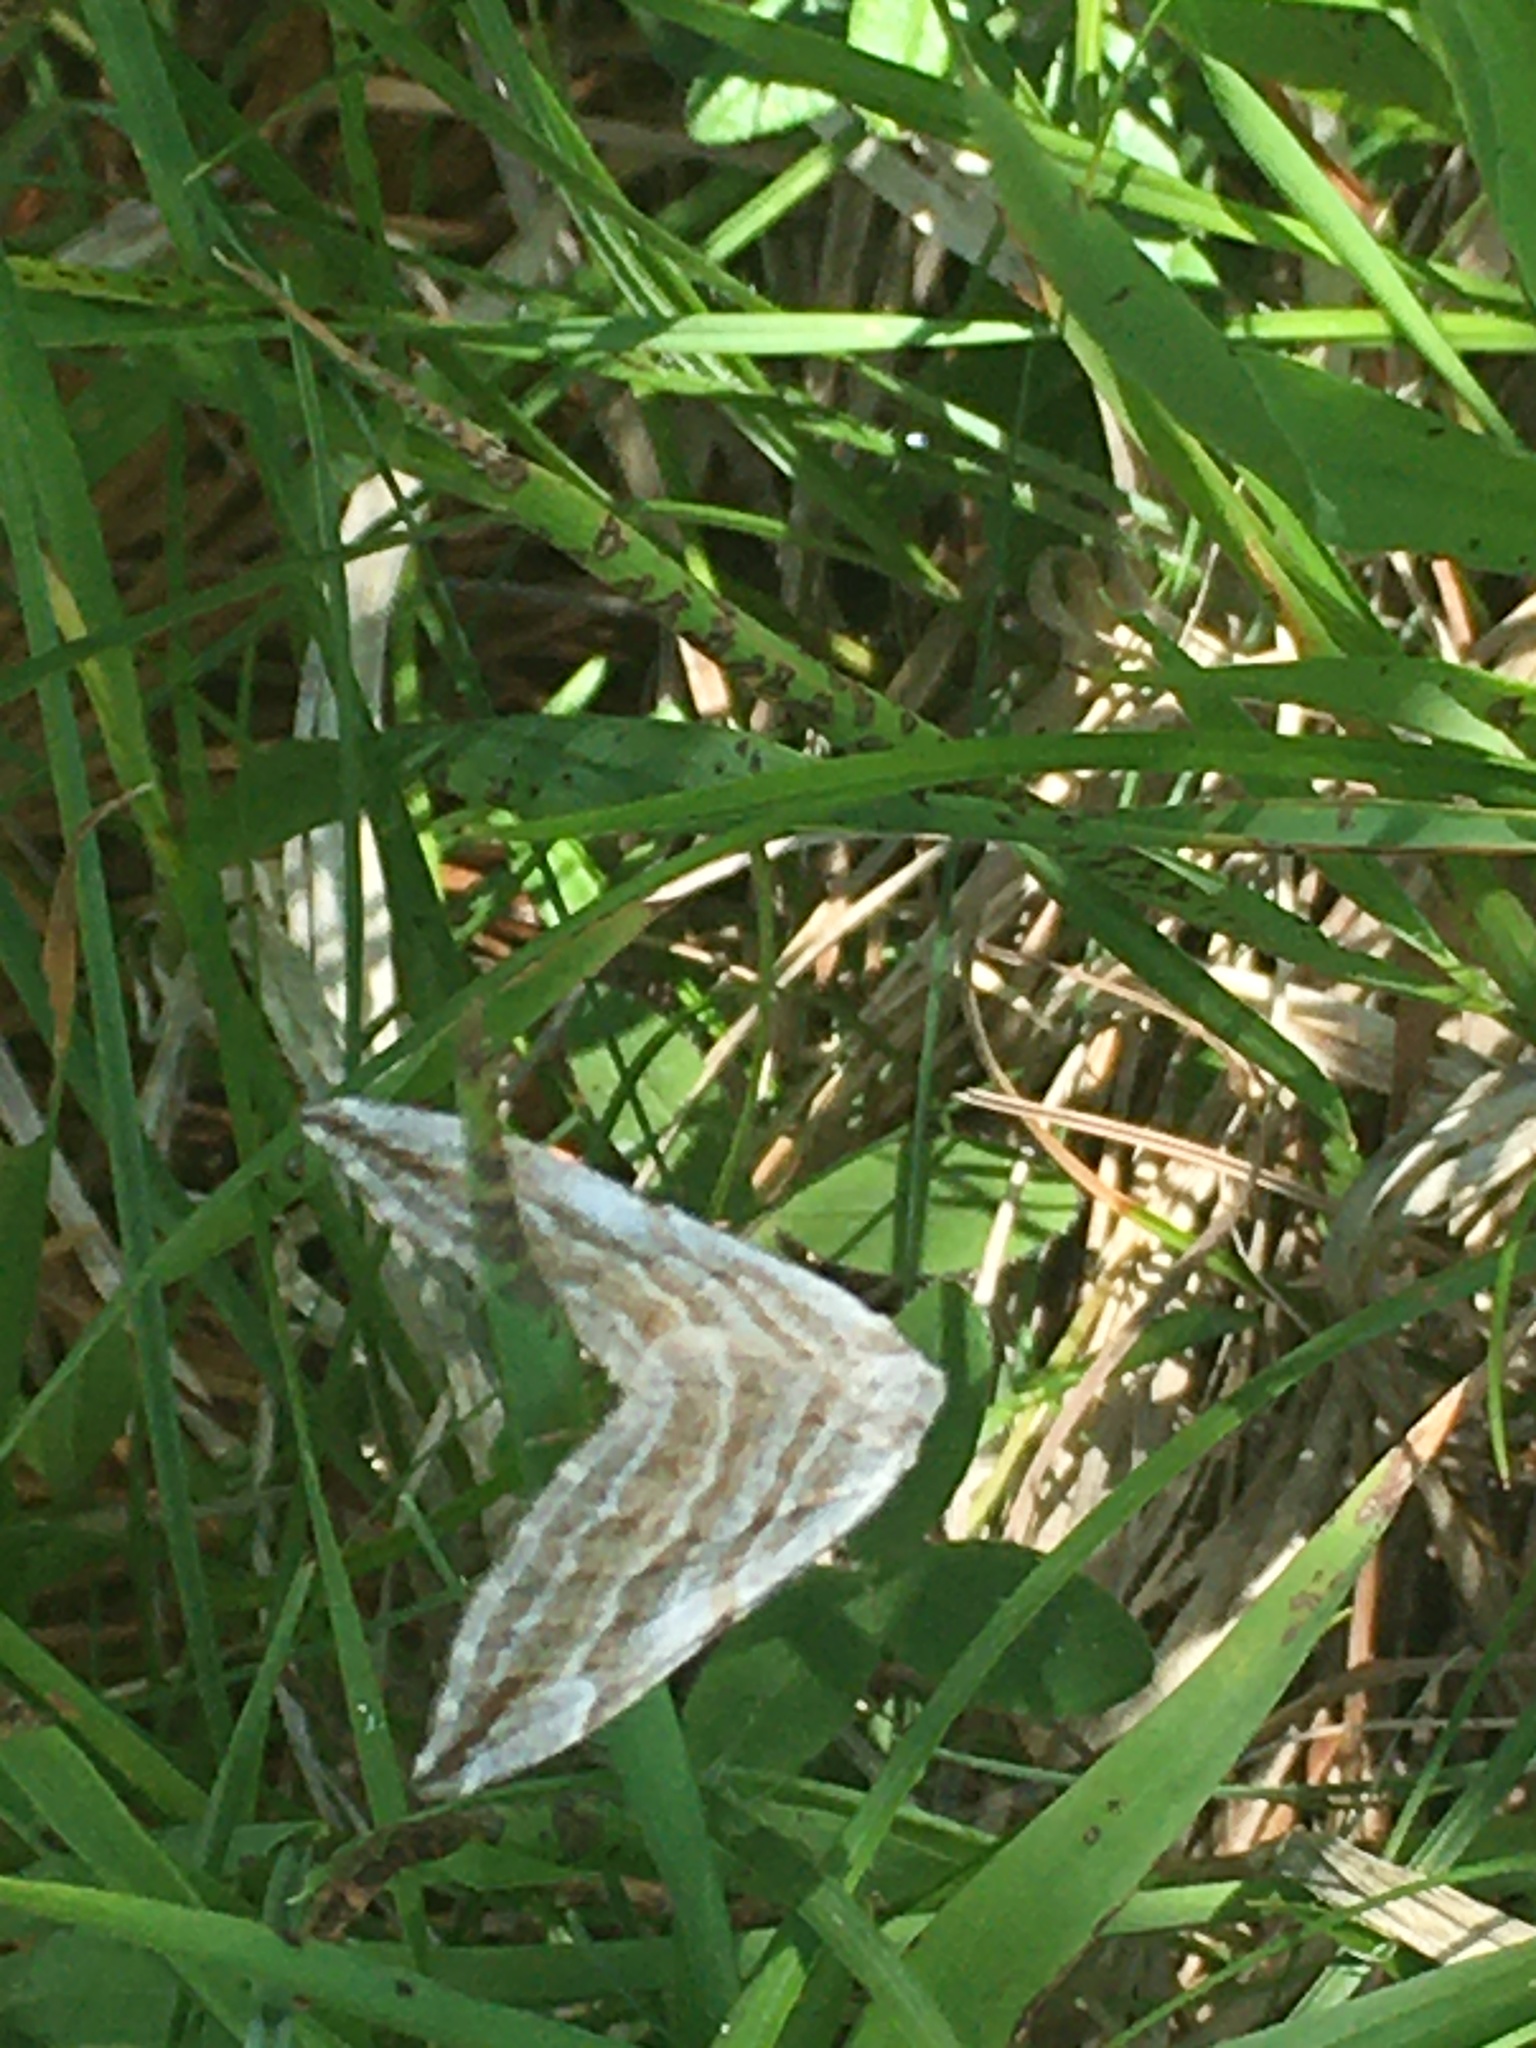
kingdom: Animalia
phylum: Arthropoda
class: Insecta
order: Lepidoptera
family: Geometridae
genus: Aplocera
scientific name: Aplocera annexata
